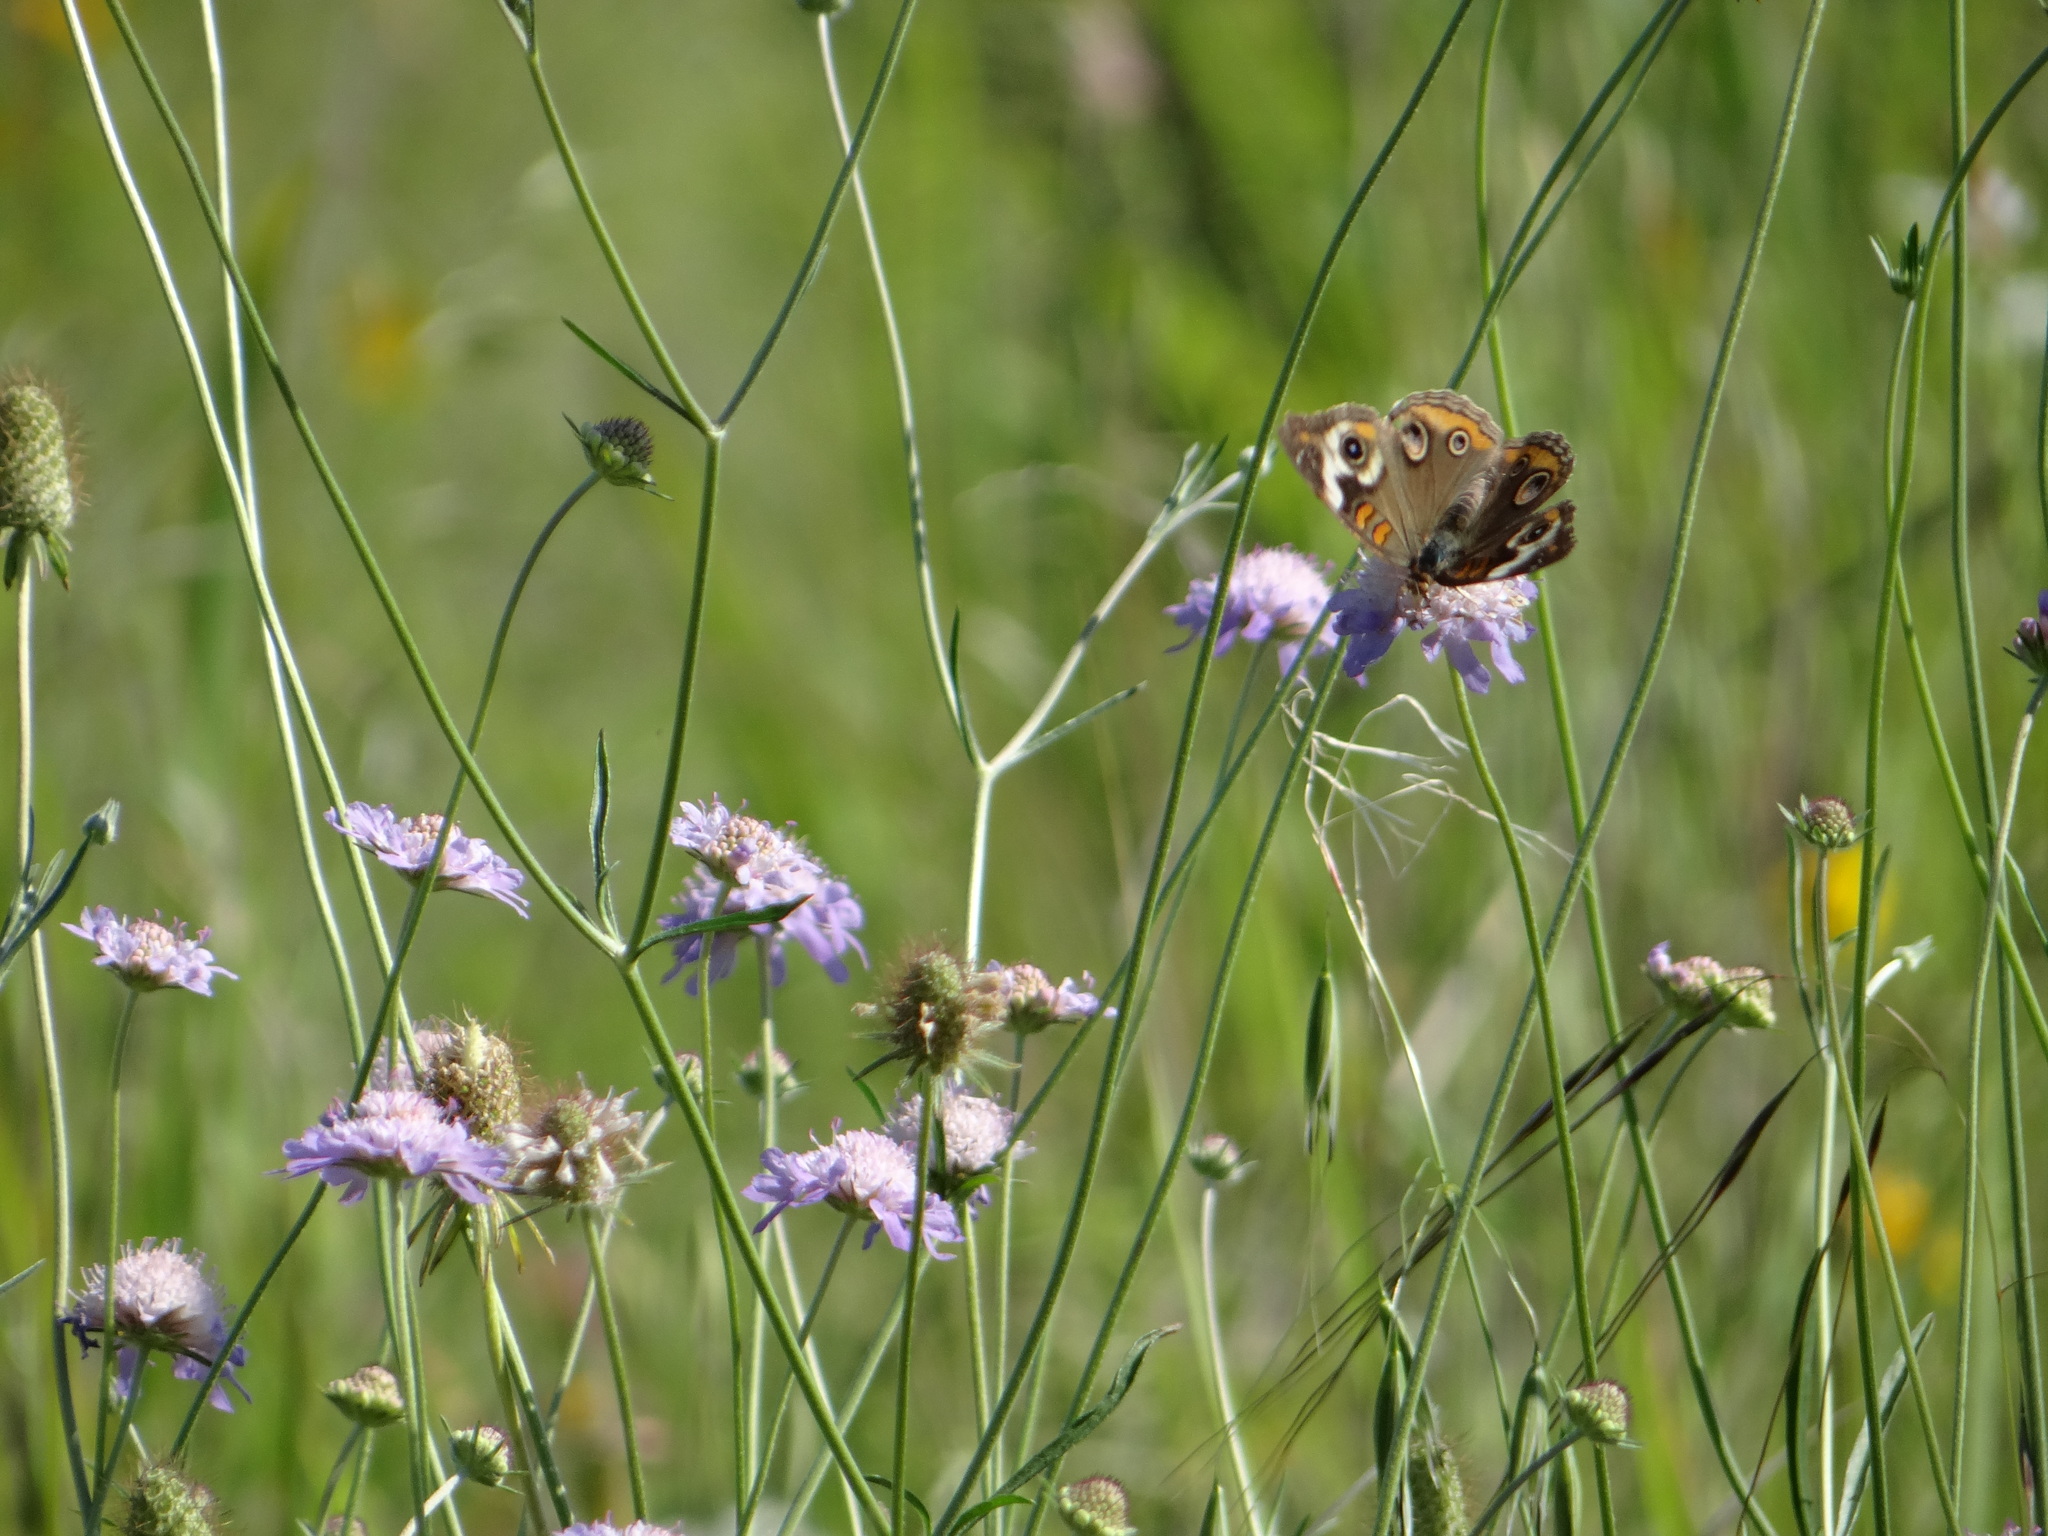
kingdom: Animalia
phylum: Arthropoda
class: Insecta
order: Lepidoptera
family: Nymphalidae
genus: Junonia
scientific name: Junonia coenia
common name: Common buckeye
